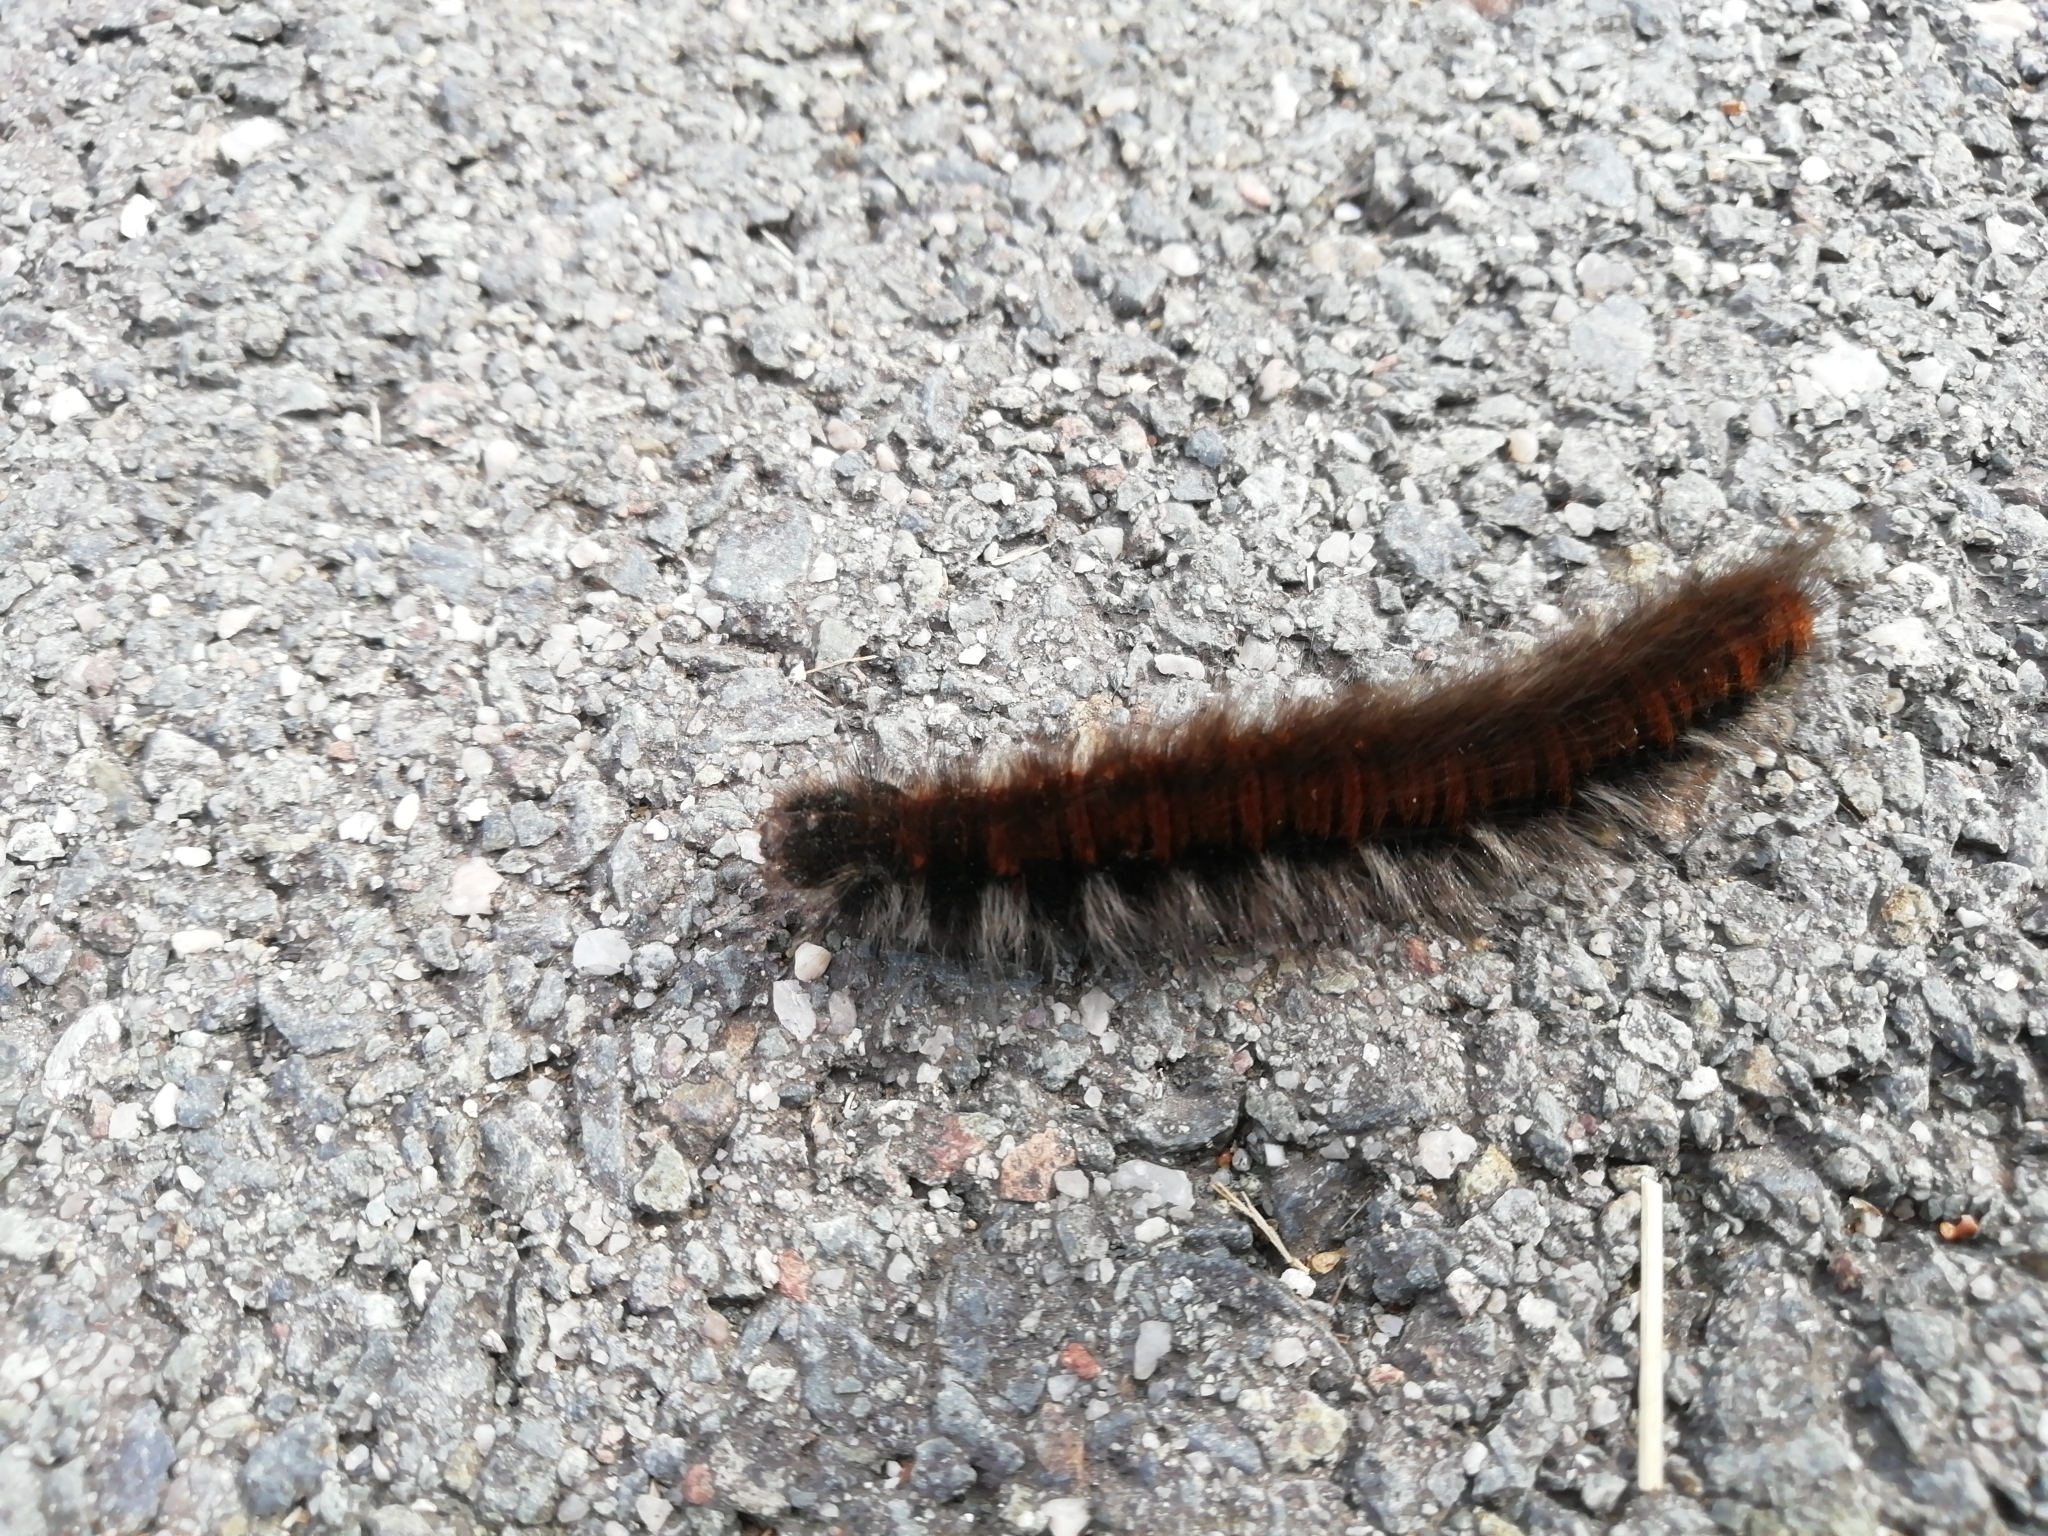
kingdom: Animalia
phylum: Arthropoda
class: Insecta
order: Lepidoptera
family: Lasiocampidae
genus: Macrothylacia
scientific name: Macrothylacia rubi
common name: Fox moth
